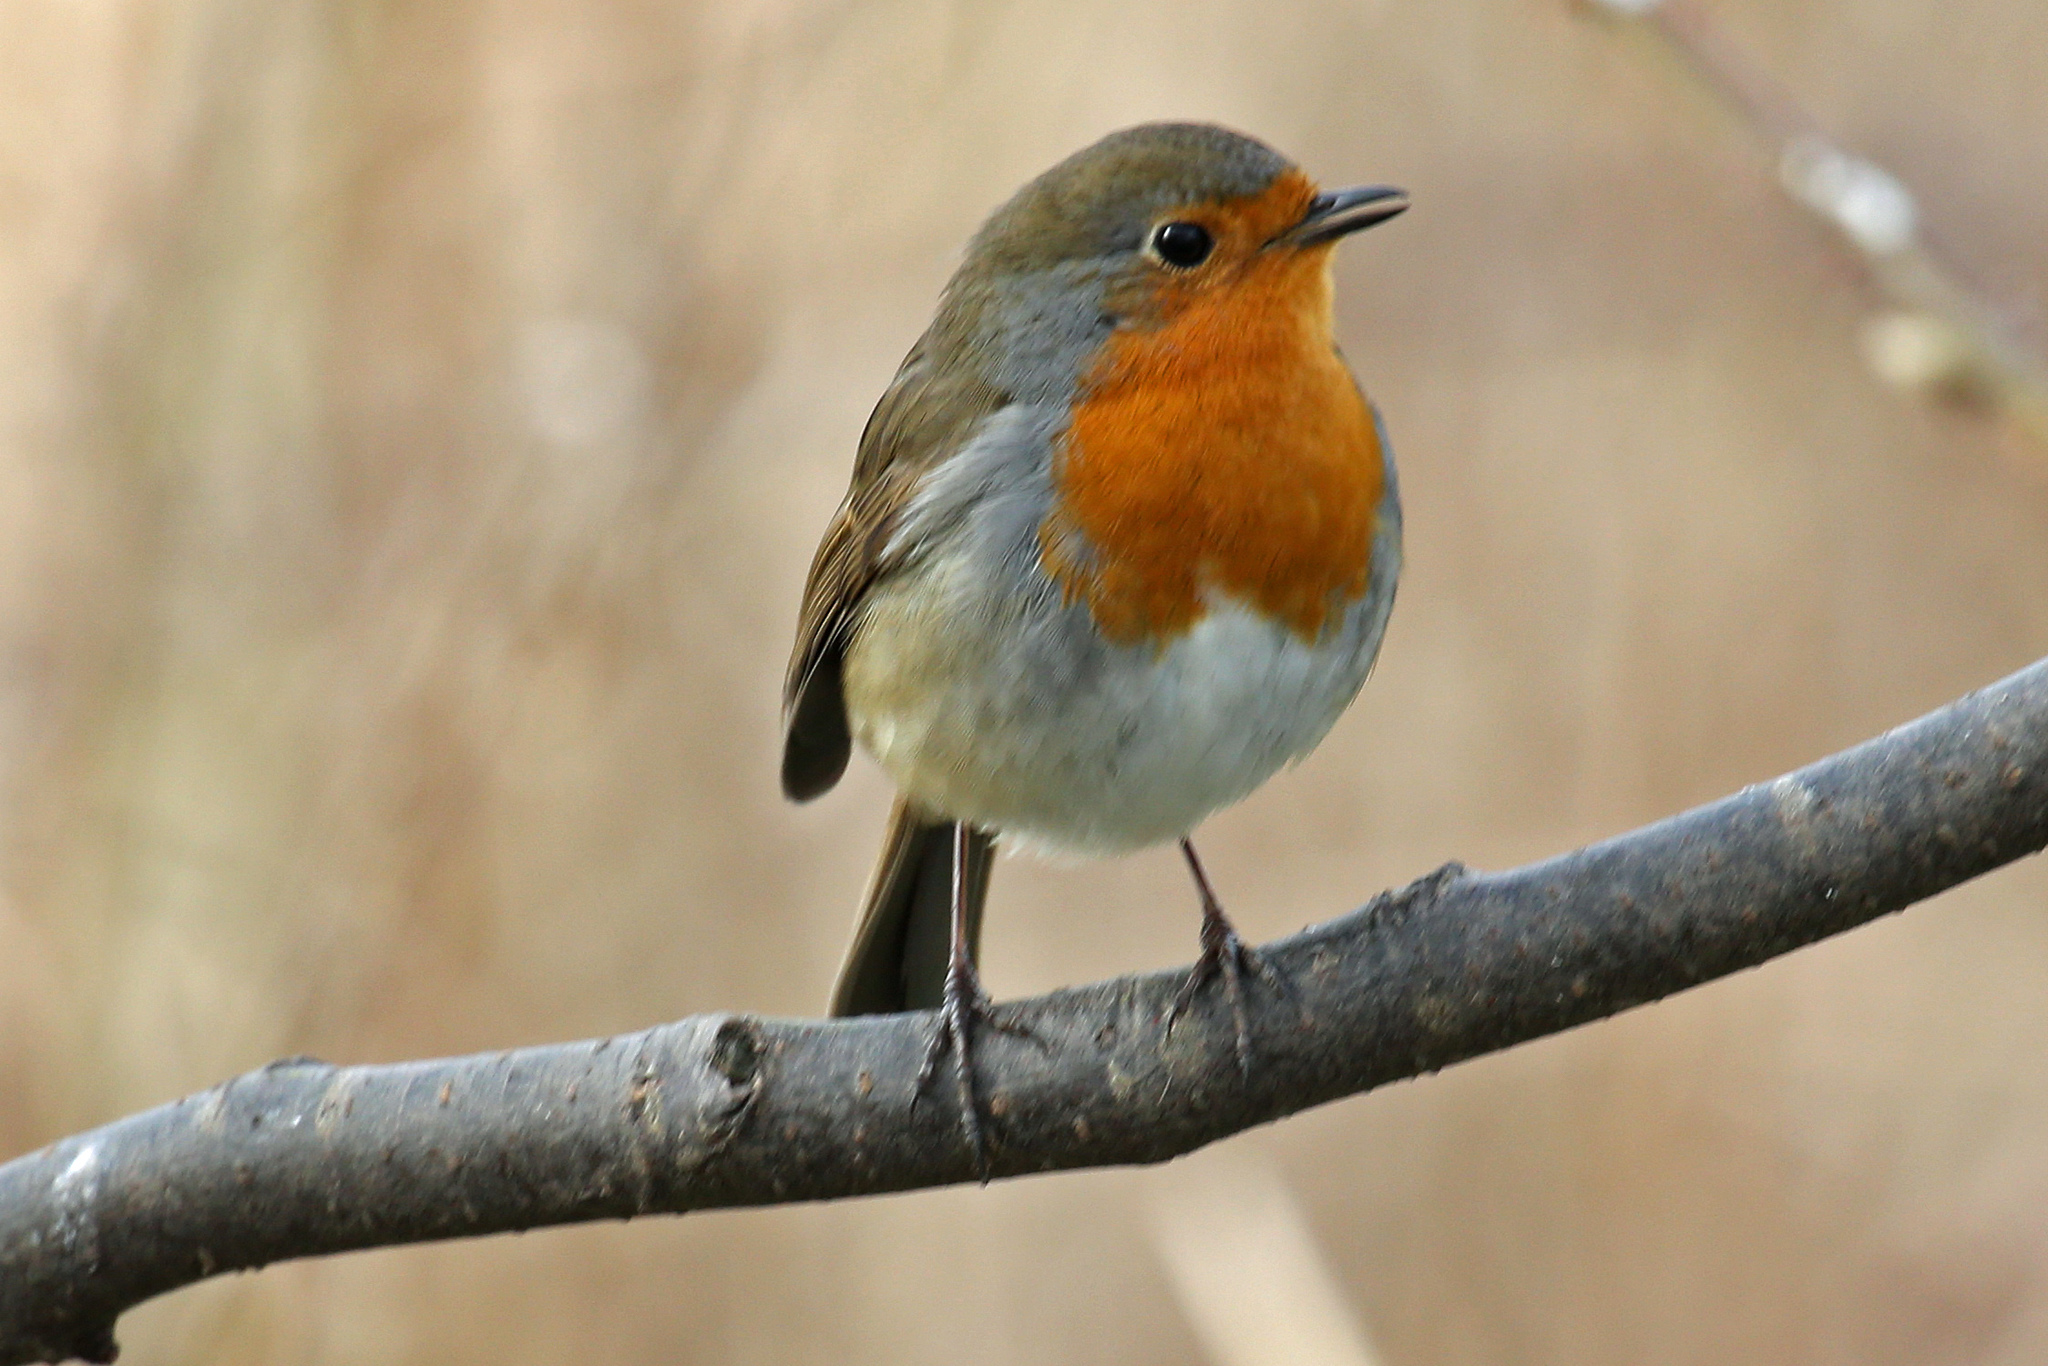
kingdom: Animalia
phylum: Chordata
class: Aves
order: Passeriformes
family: Muscicapidae
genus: Erithacus
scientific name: Erithacus rubecula
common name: European robin
